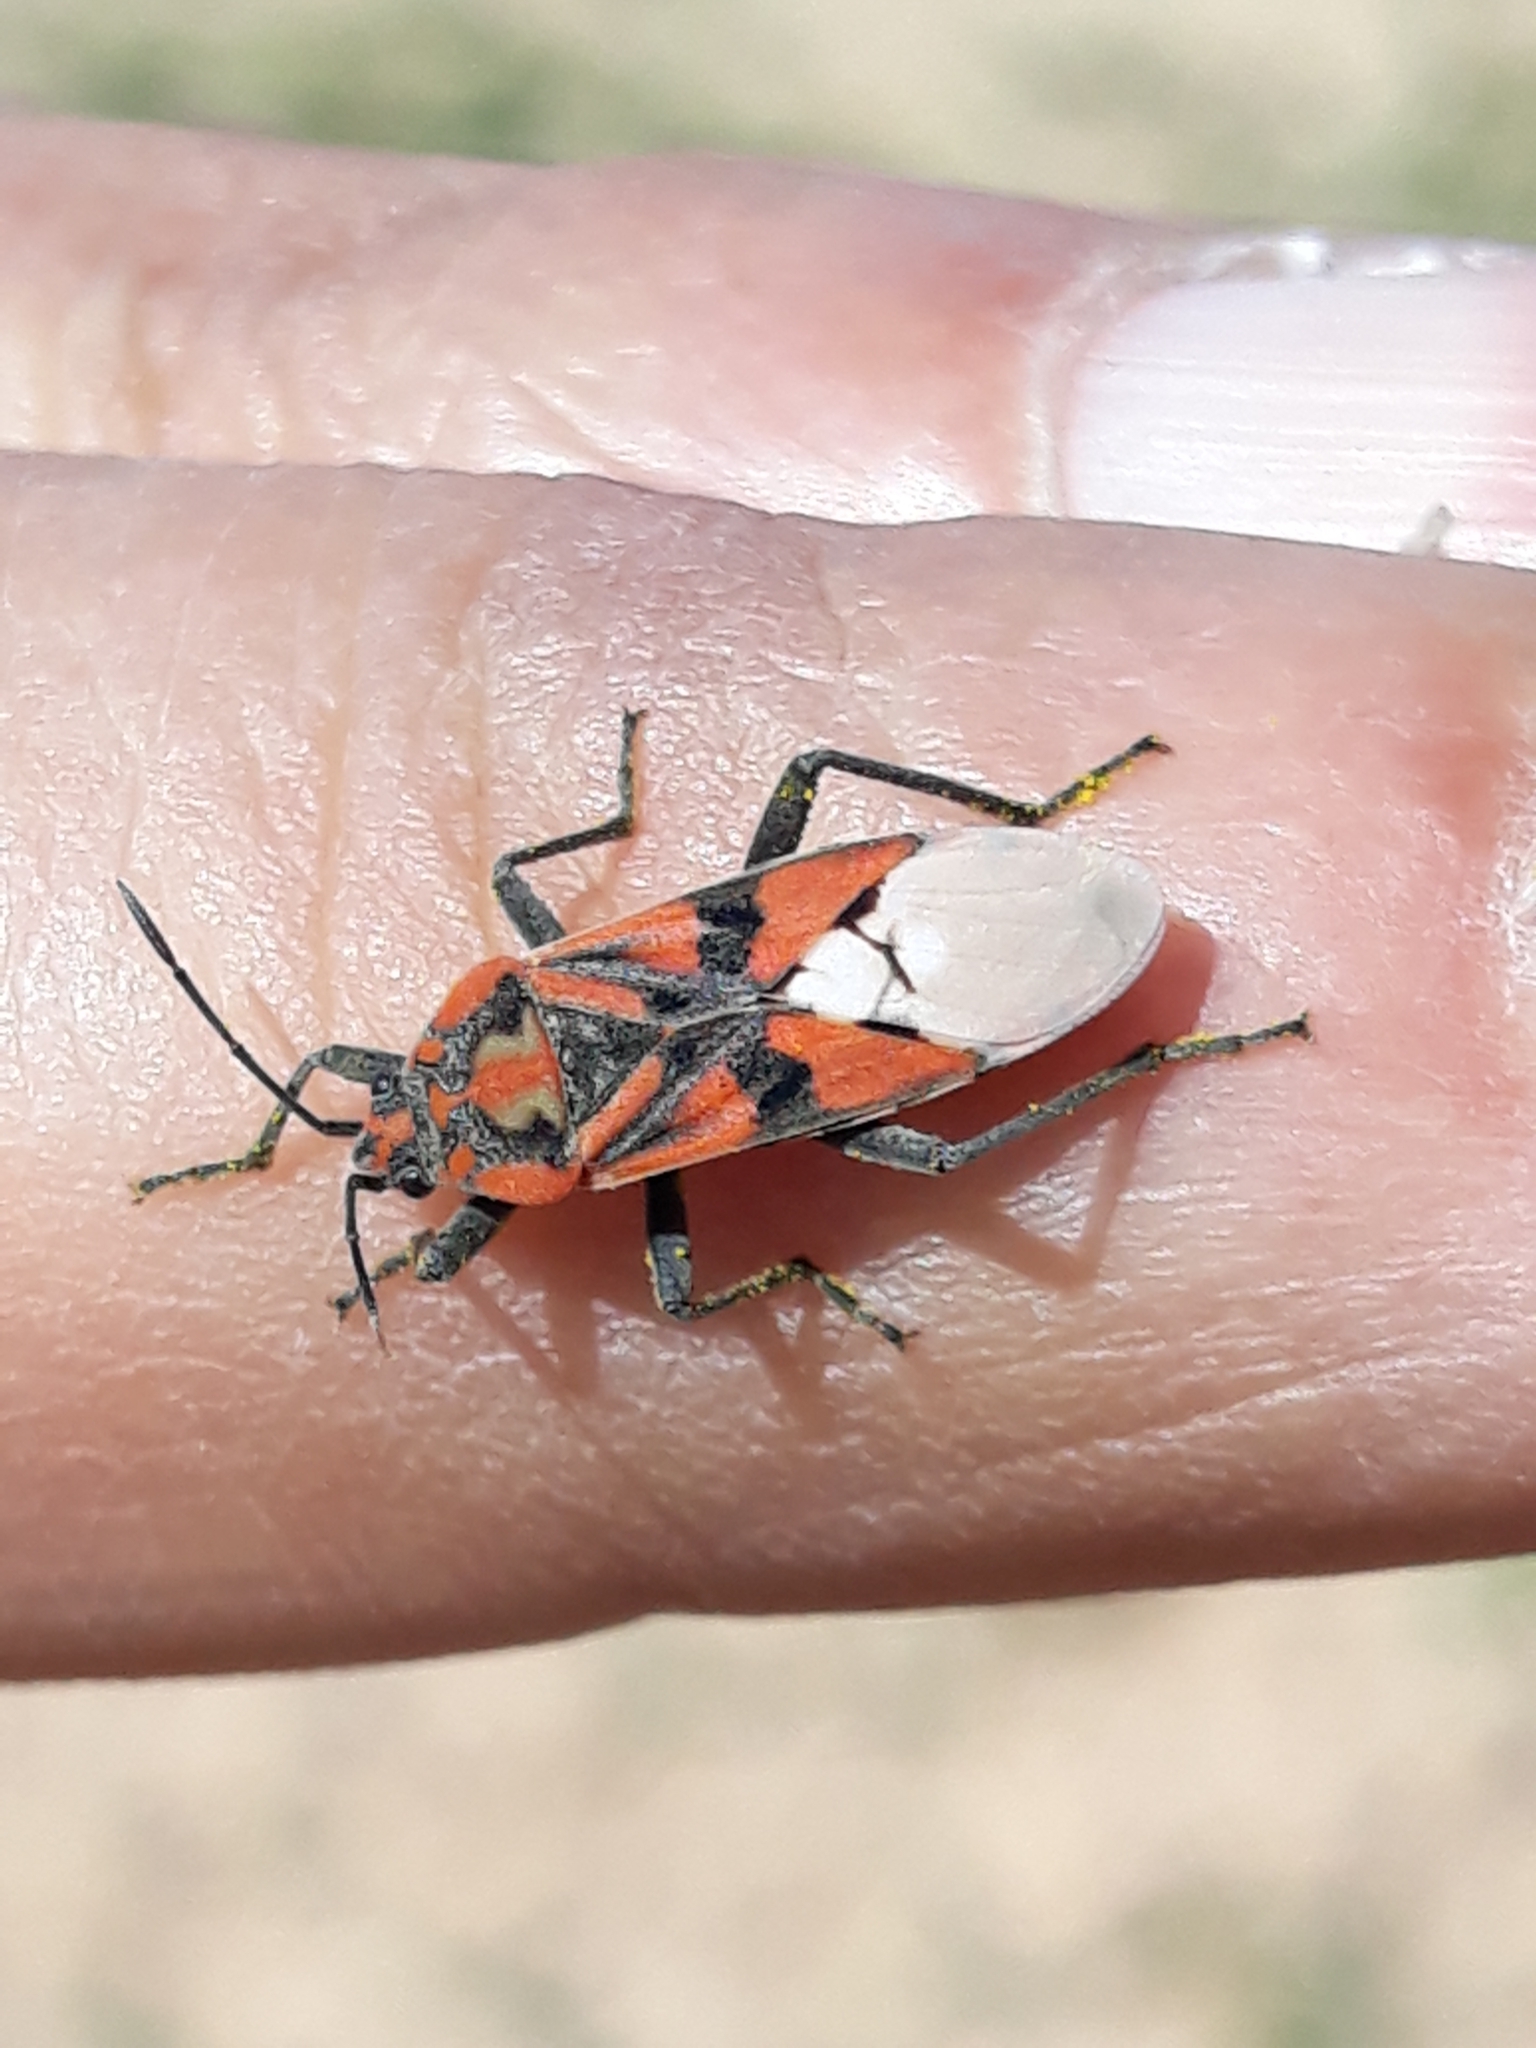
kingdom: Animalia
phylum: Arthropoda
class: Insecta
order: Hemiptera
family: Lygaeidae
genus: Spilostethus
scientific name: Spilostethus pandurus
